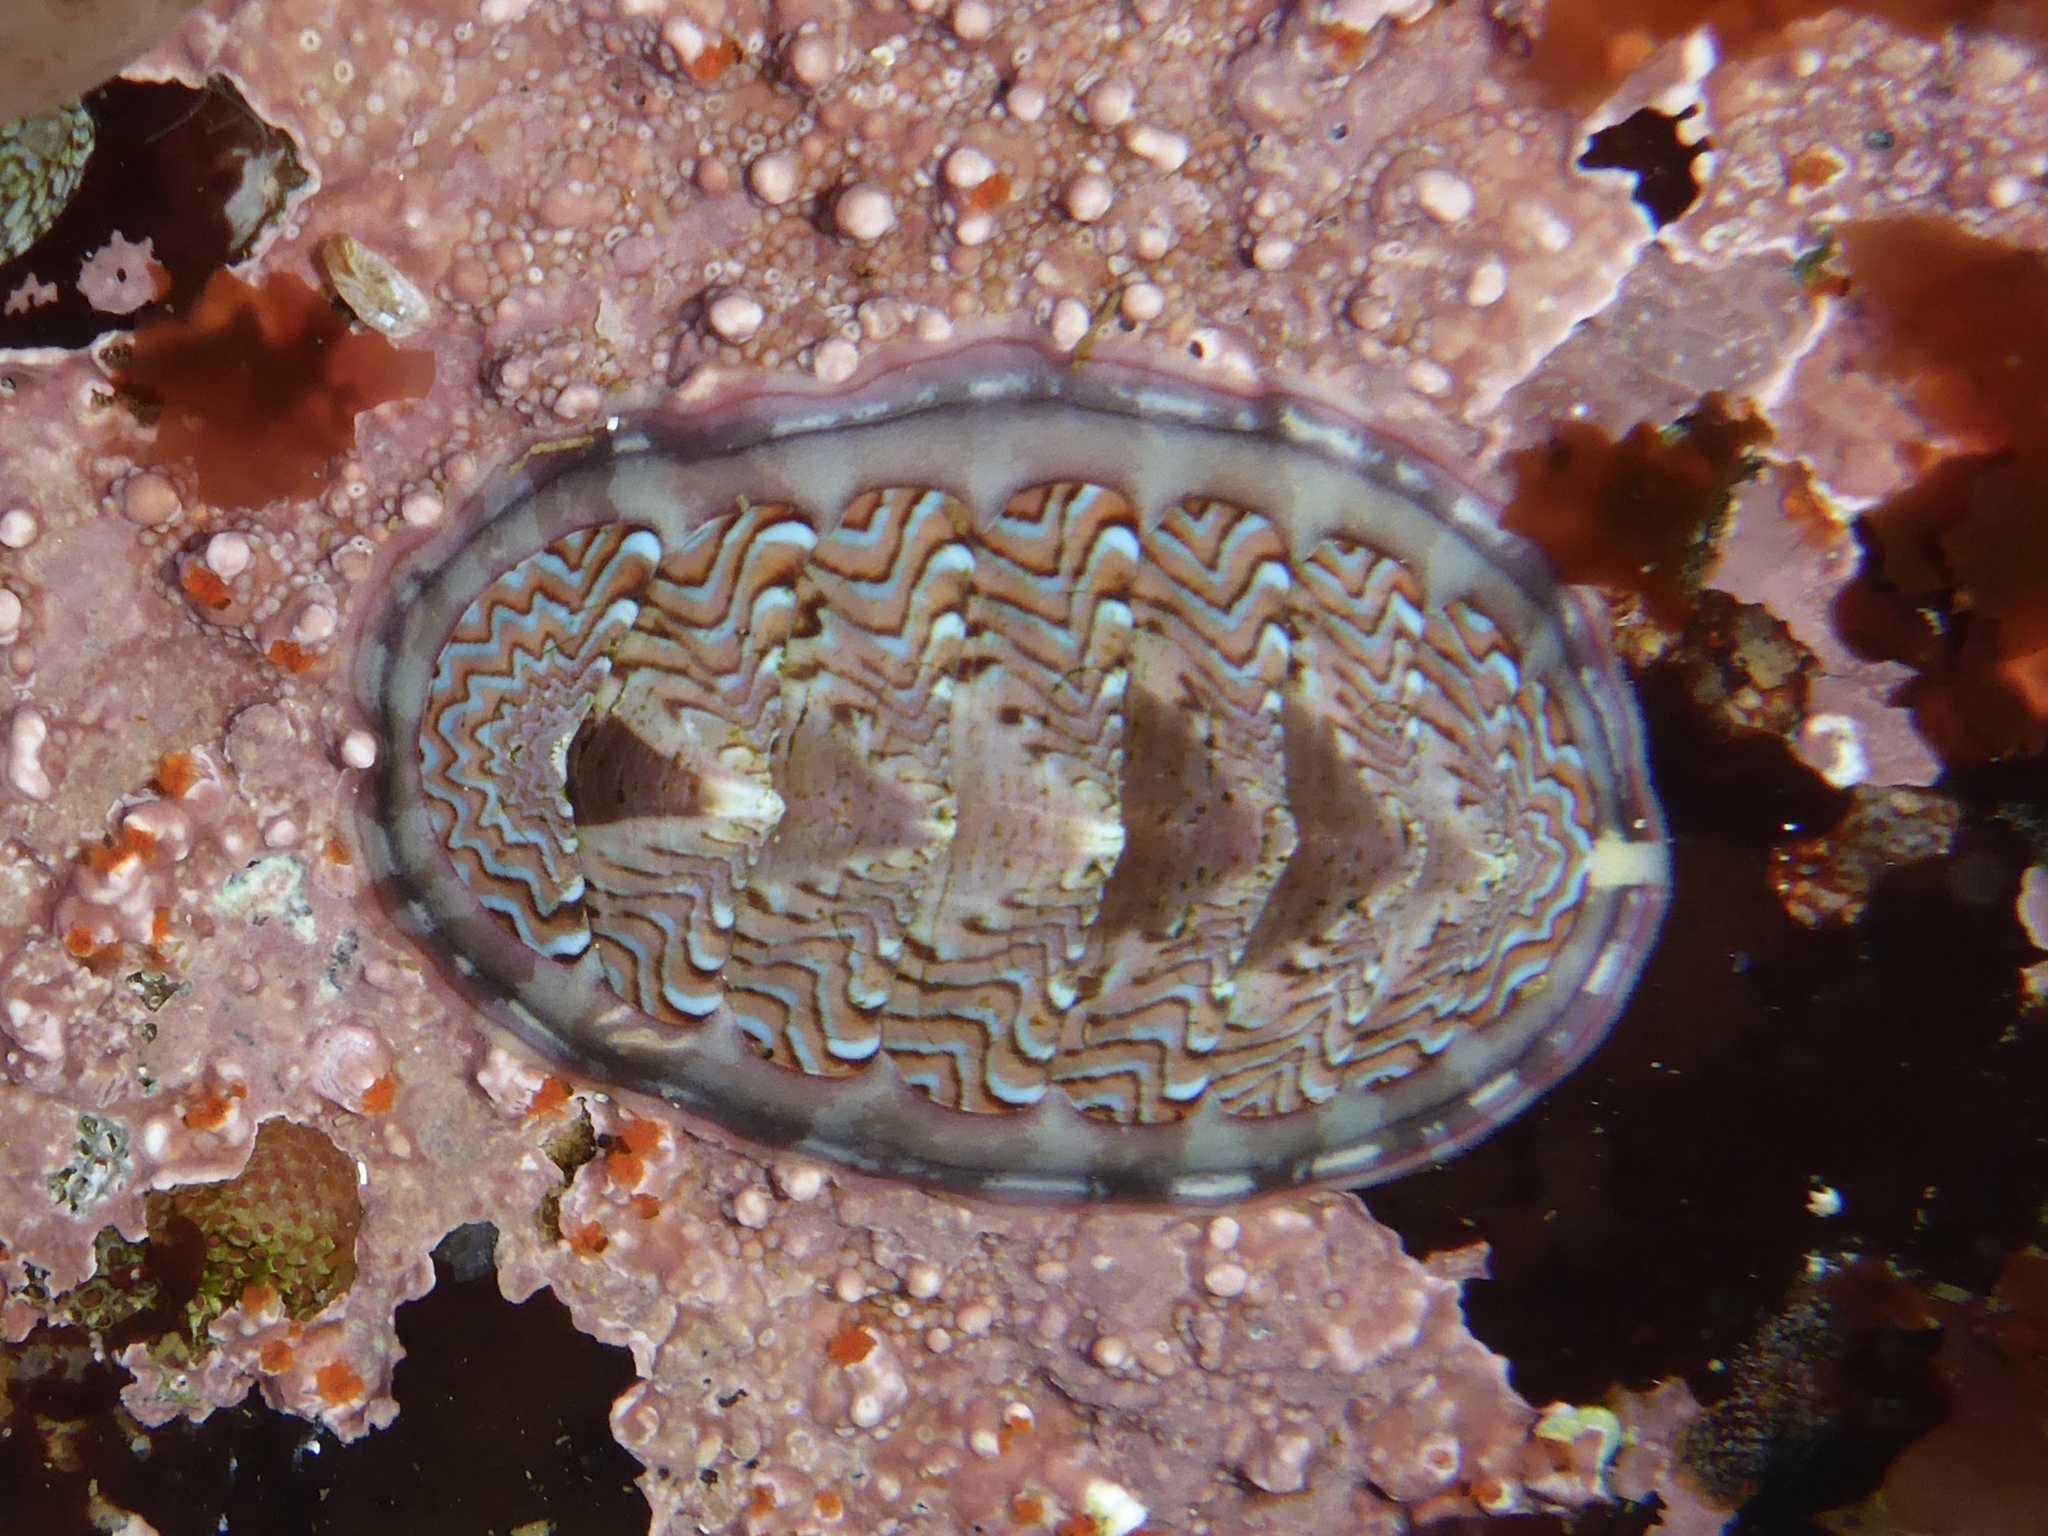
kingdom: Animalia
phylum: Mollusca
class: Polyplacophora
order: Chitonida
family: Tonicellidae
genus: Tonicella
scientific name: Tonicella lokii
